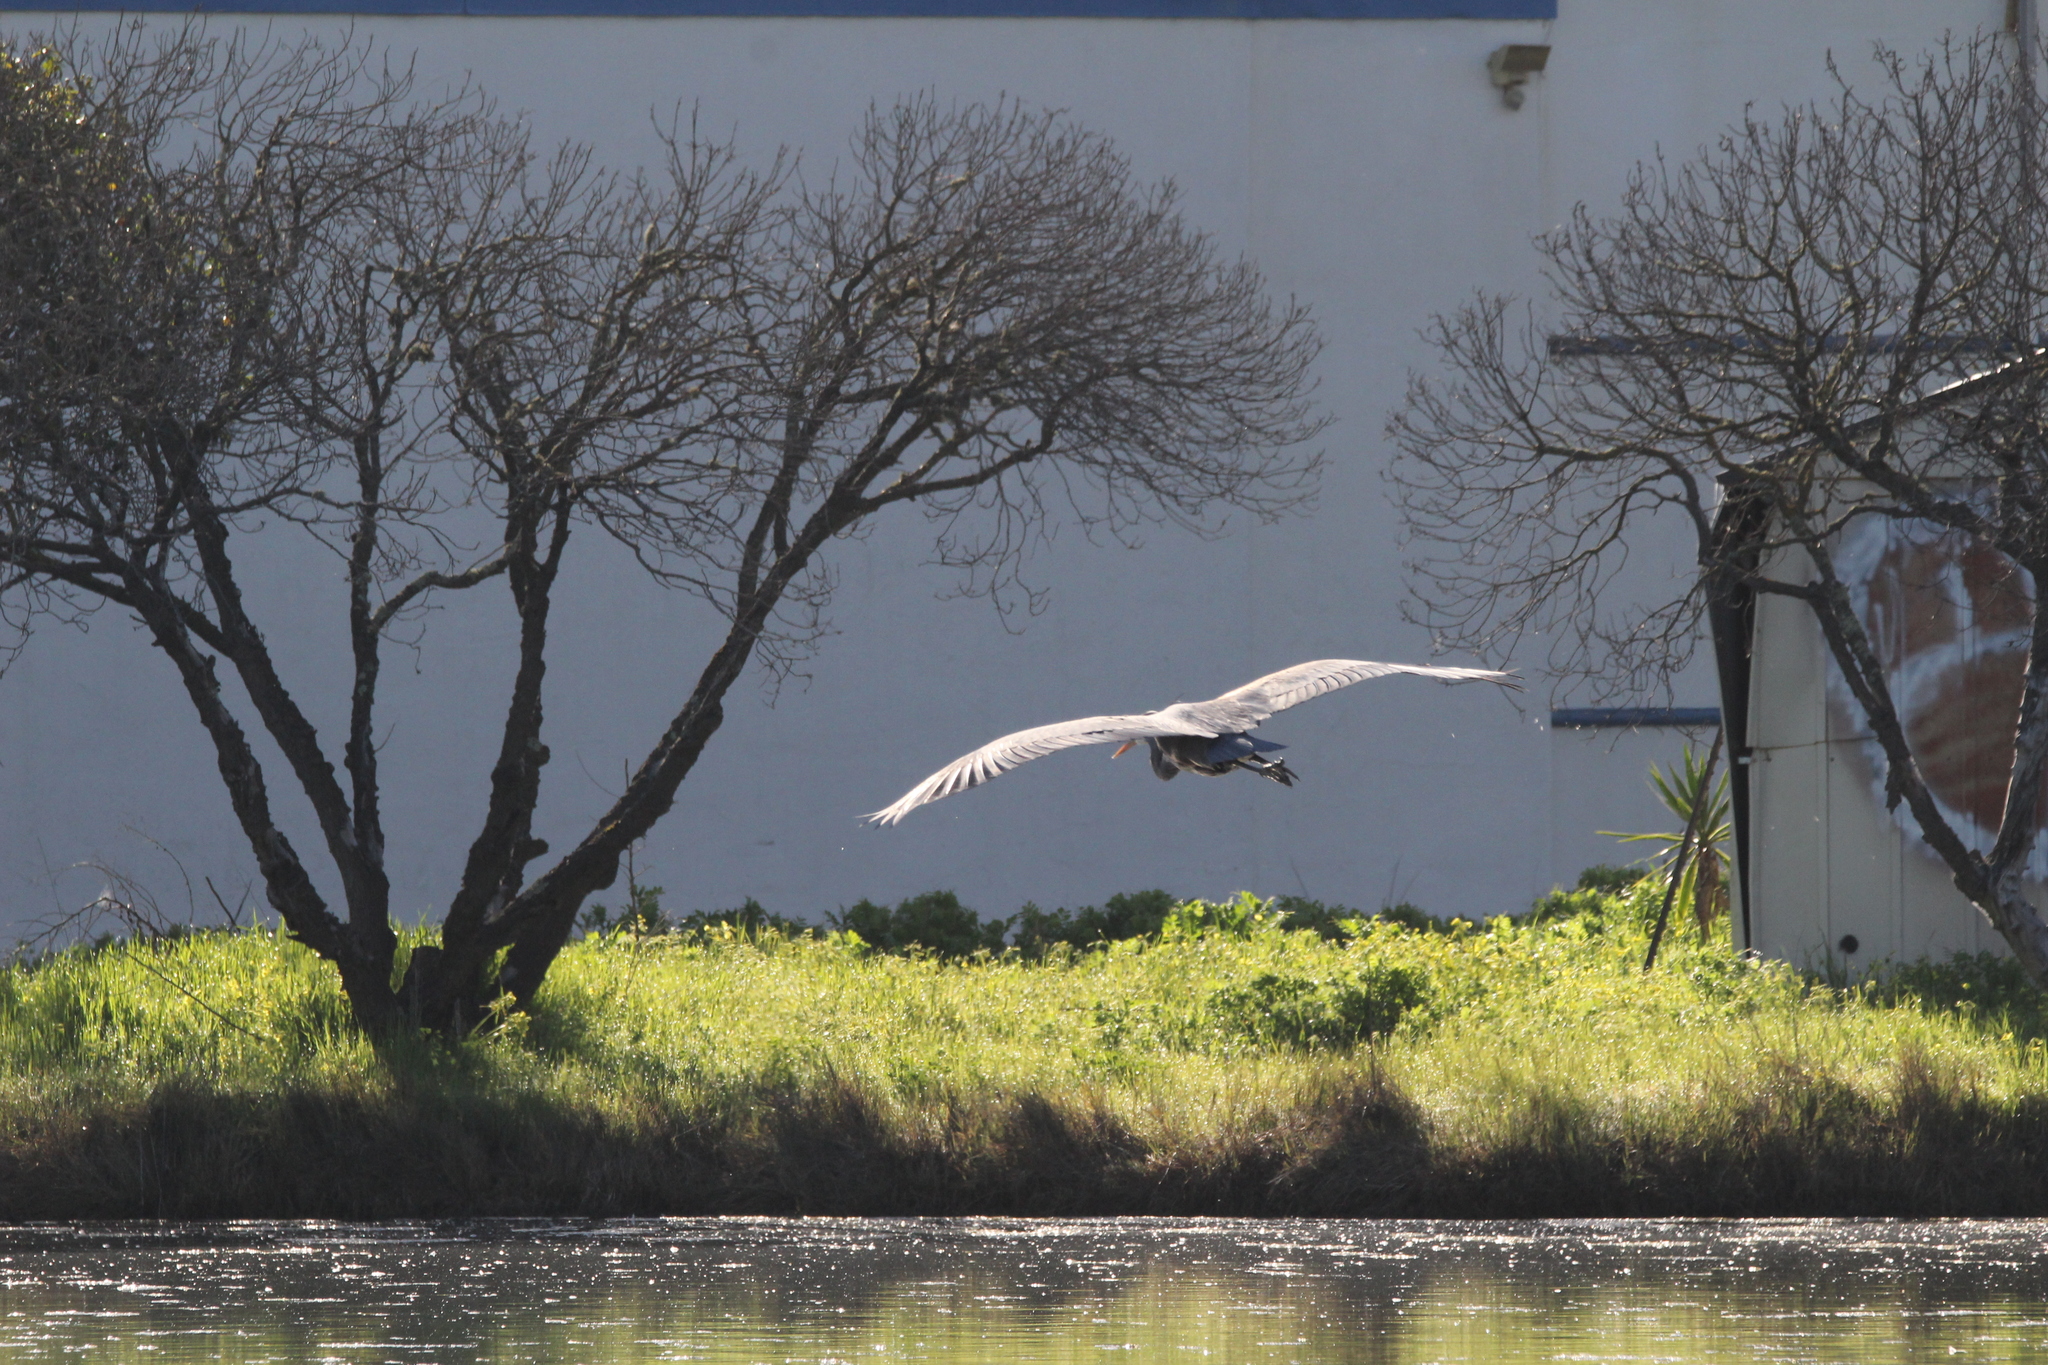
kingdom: Animalia
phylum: Chordata
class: Aves
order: Pelecaniformes
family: Ardeidae
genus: Ardea
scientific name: Ardea herodias
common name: Great blue heron
